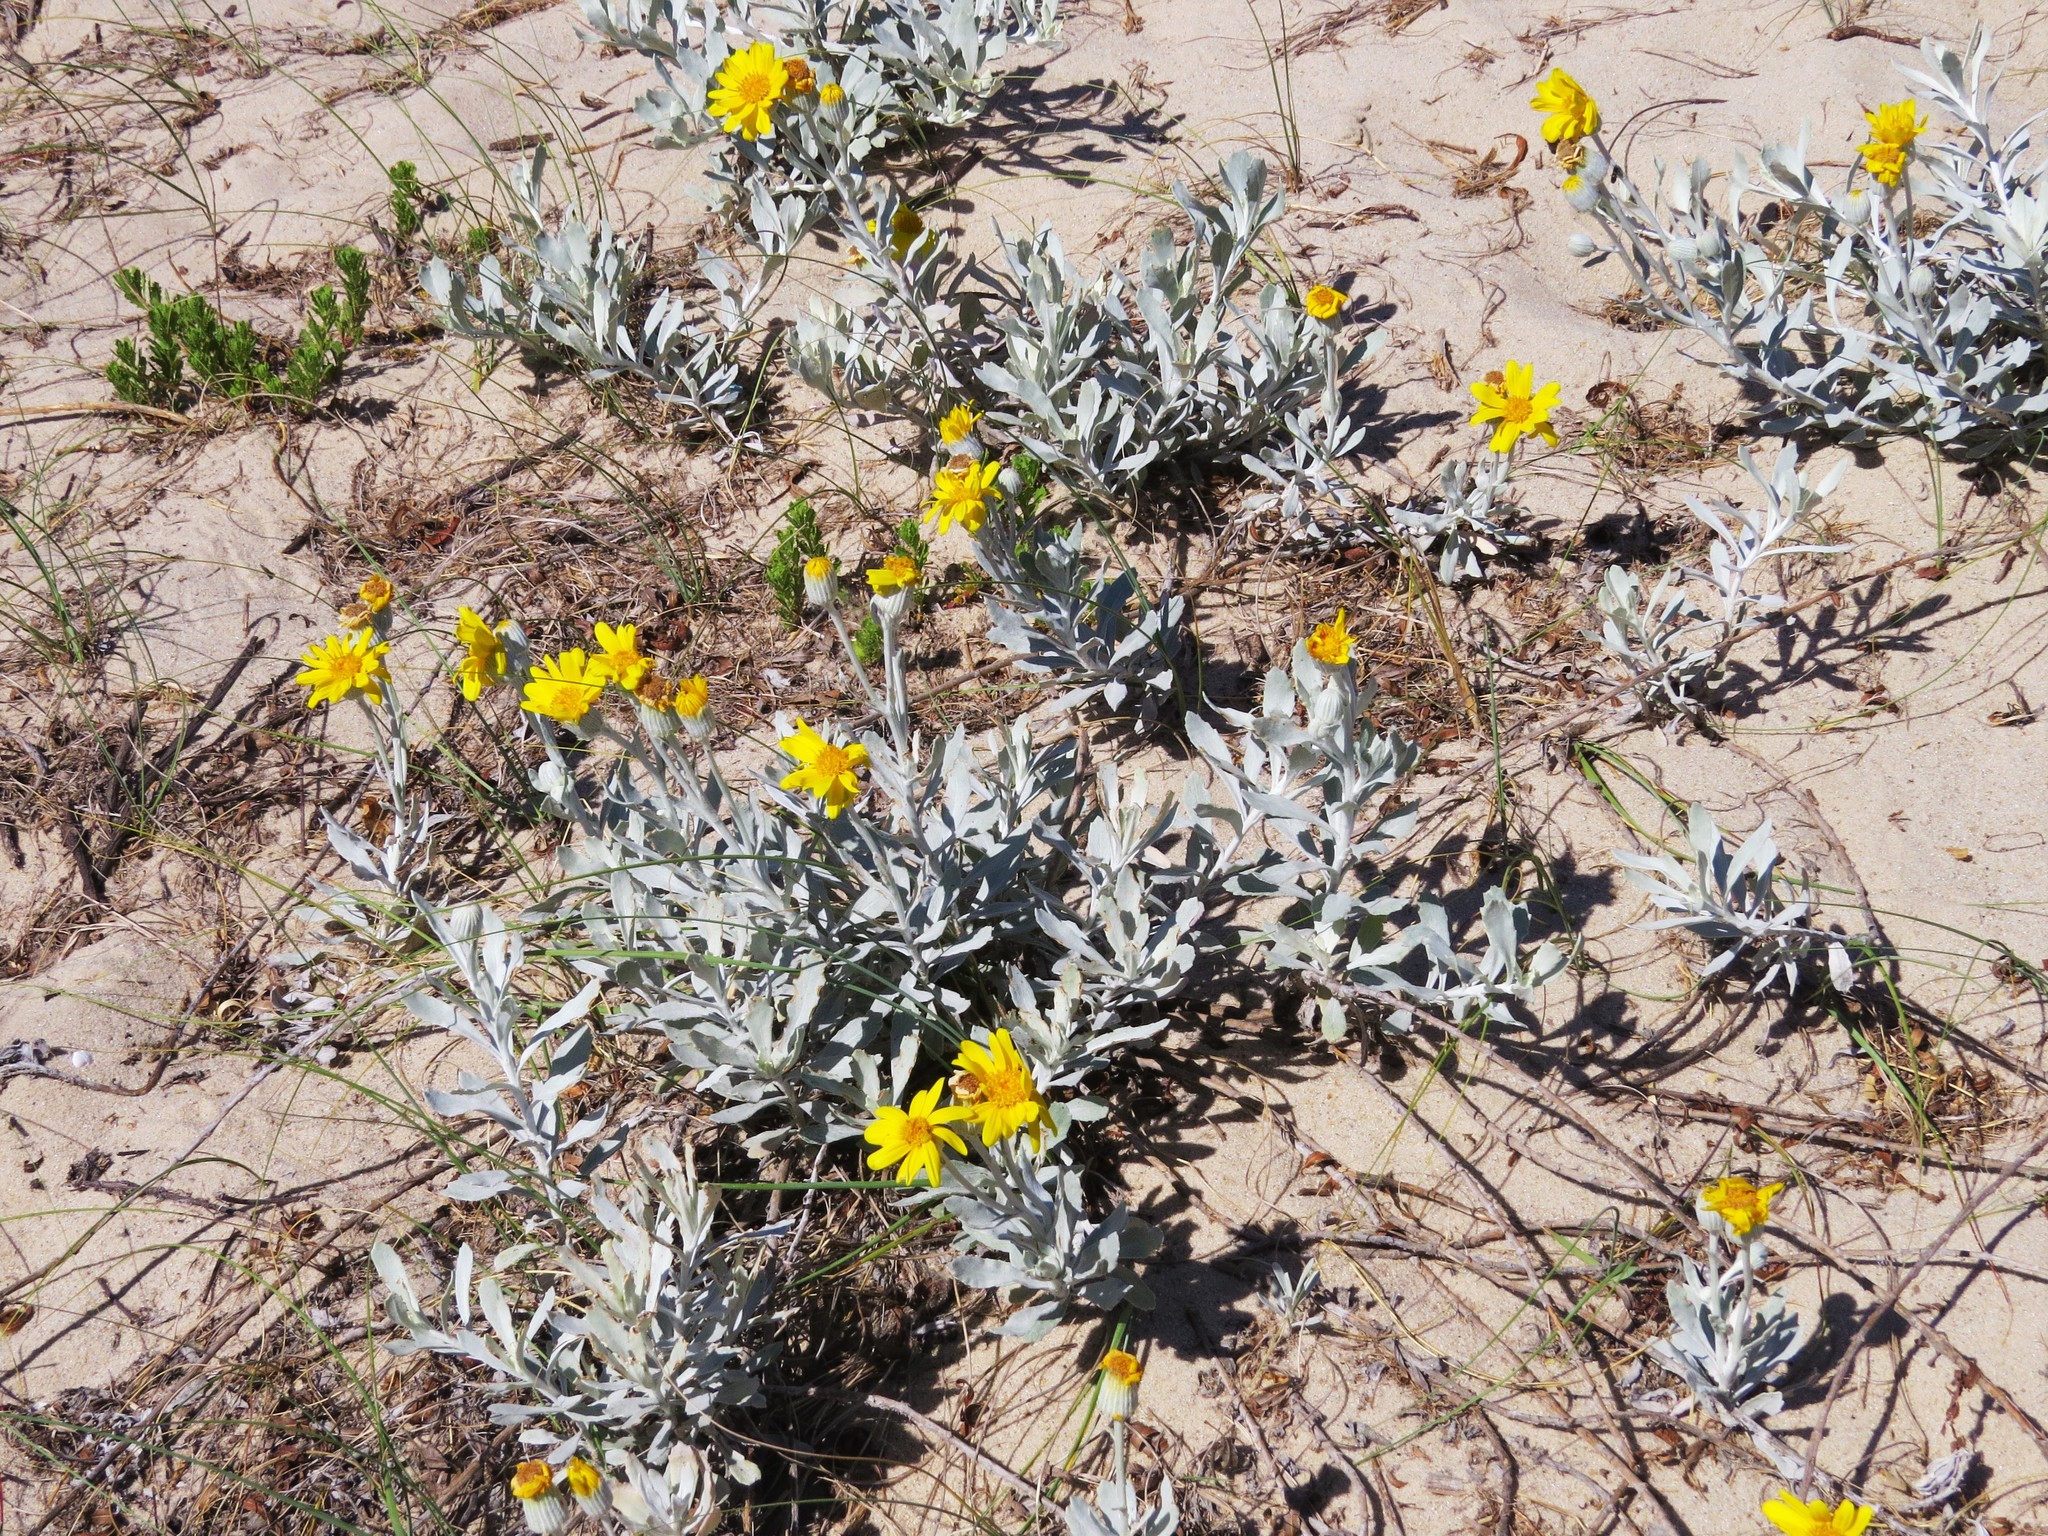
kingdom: Plantae
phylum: Tracheophyta
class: Magnoliopsida
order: Asterales
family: Asteraceae
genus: Senecio
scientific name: Senecio crassiflorus
